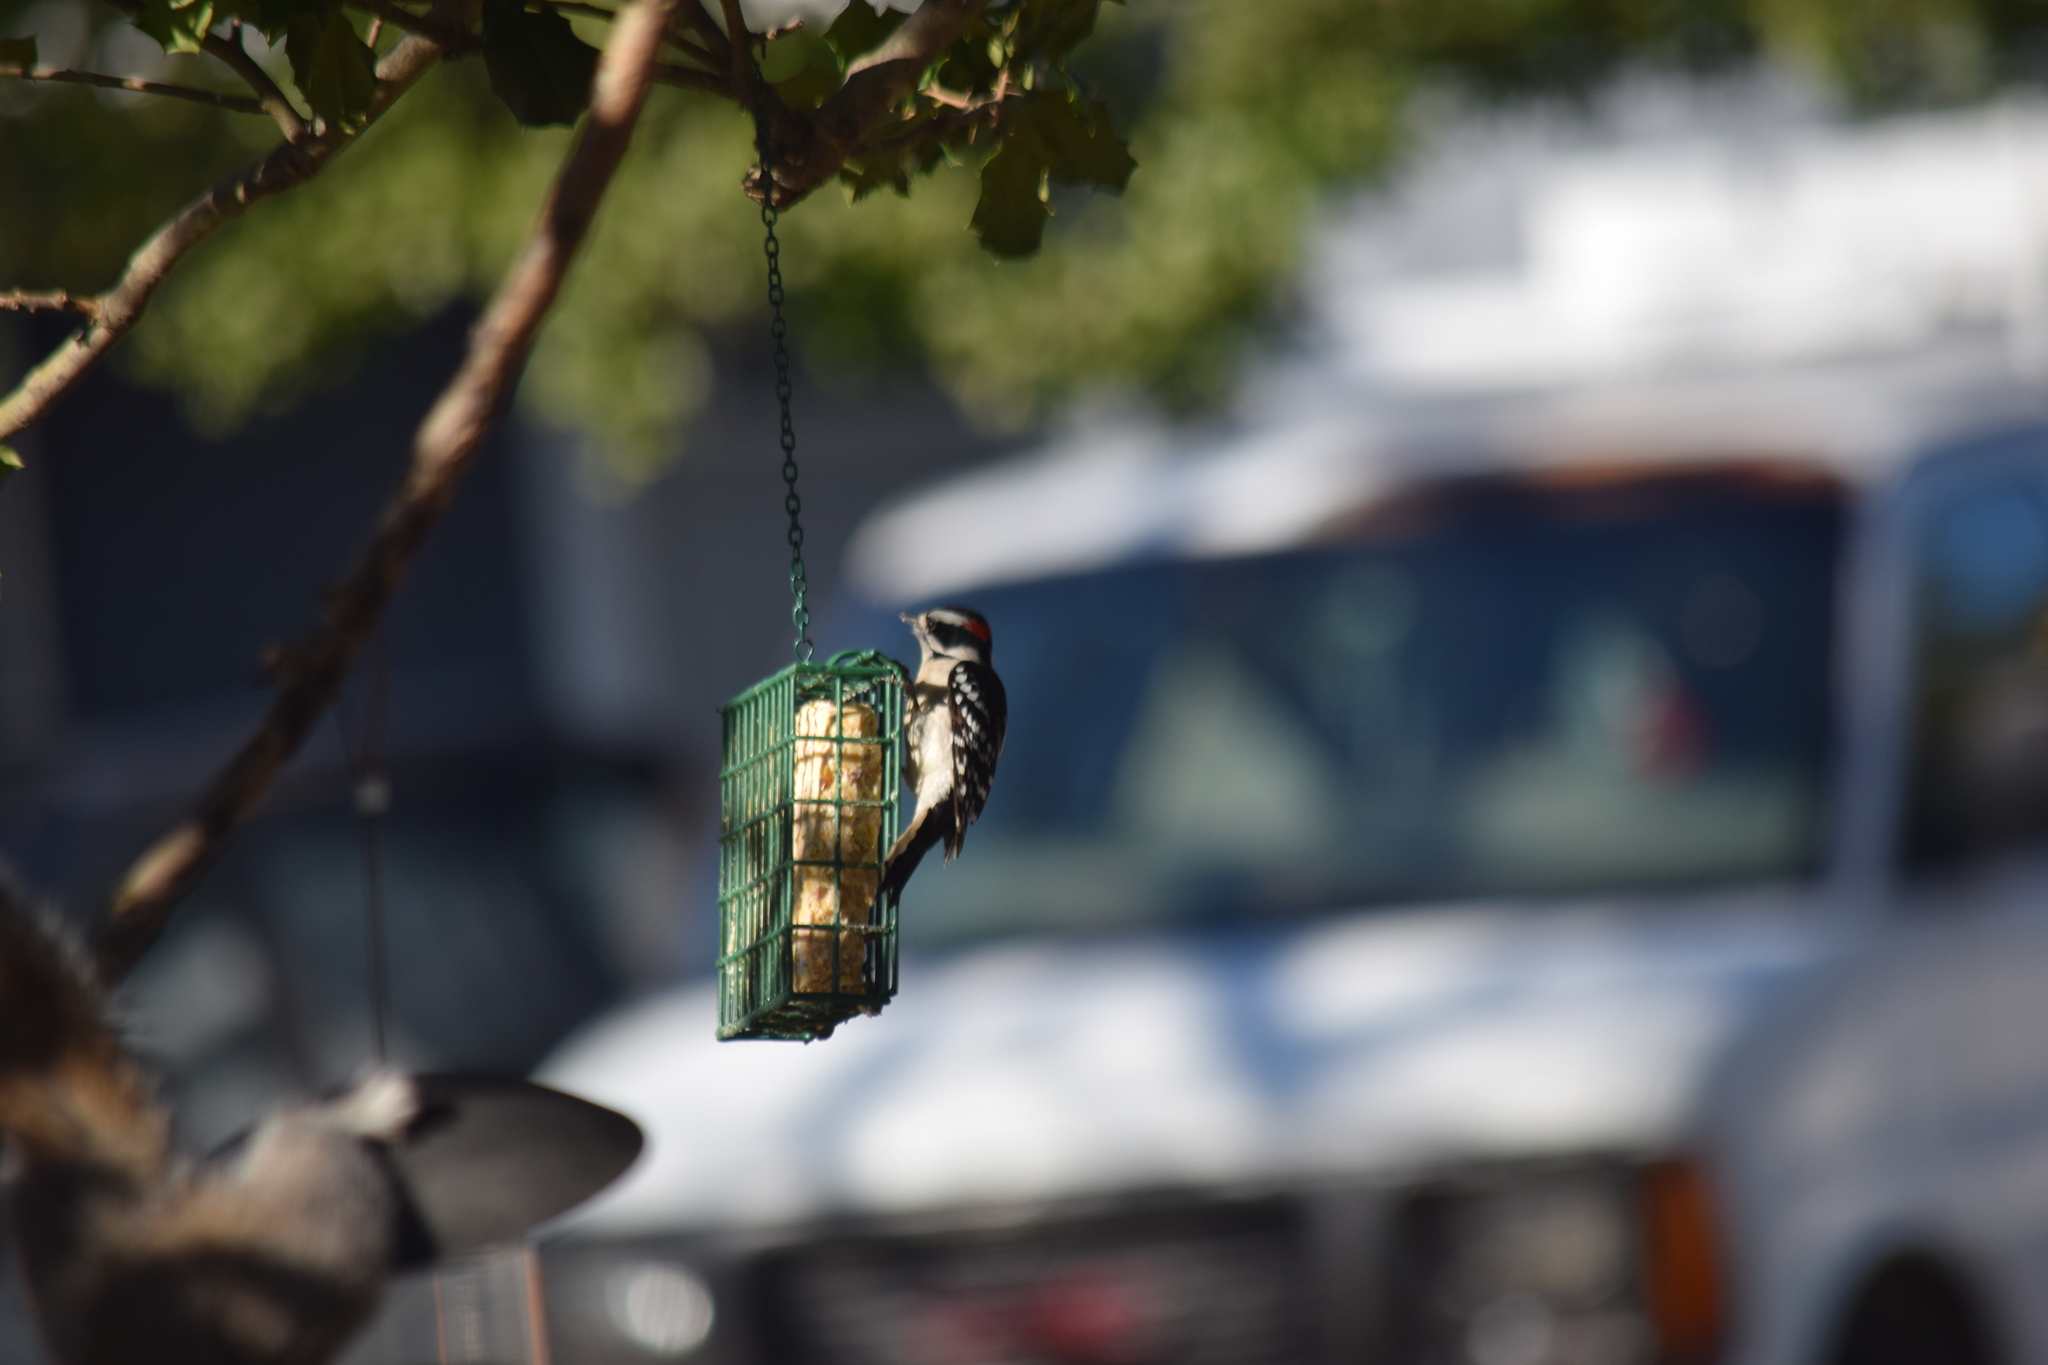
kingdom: Animalia
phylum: Chordata
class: Aves
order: Piciformes
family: Picidae
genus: Dryobates
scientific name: Dryobates pubescens
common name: Downy woodpecker
